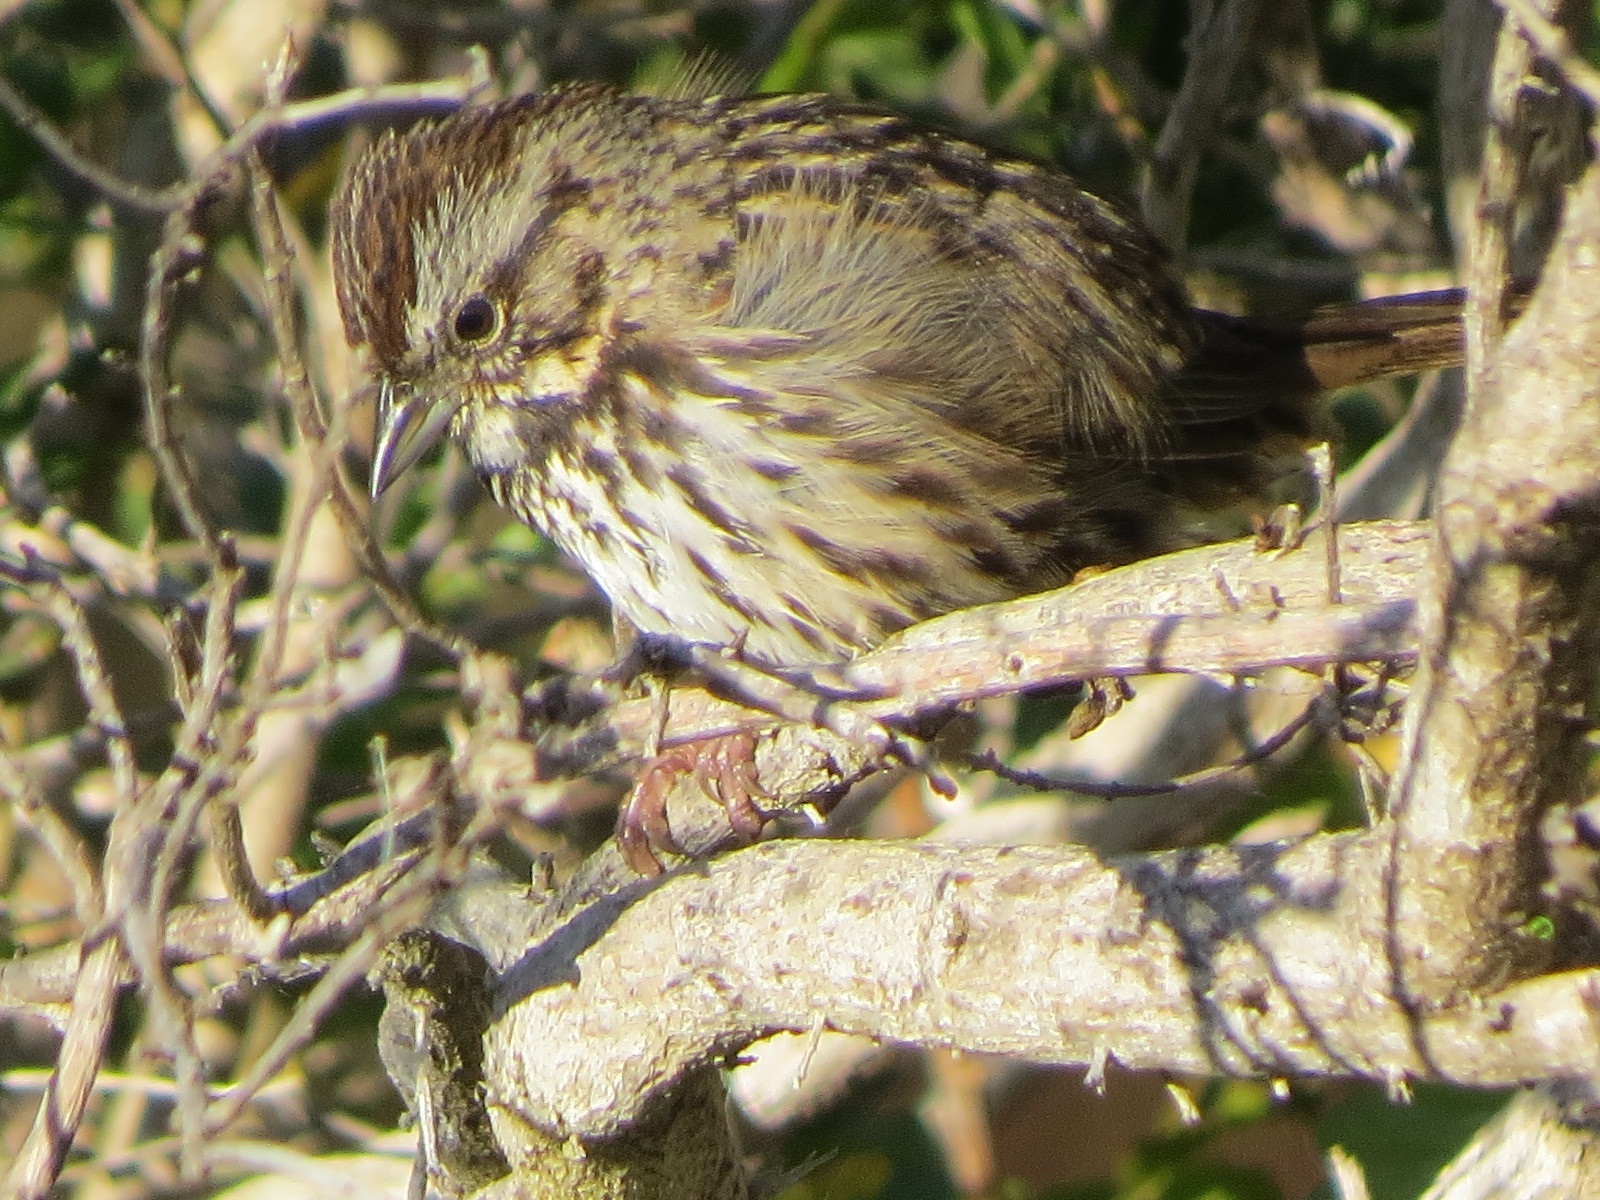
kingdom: Animalia
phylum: Chordata
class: Aves
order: Passeriformes
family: Passerellidae
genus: Melospiza
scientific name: Melospiza melodia
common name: Song sparrow
